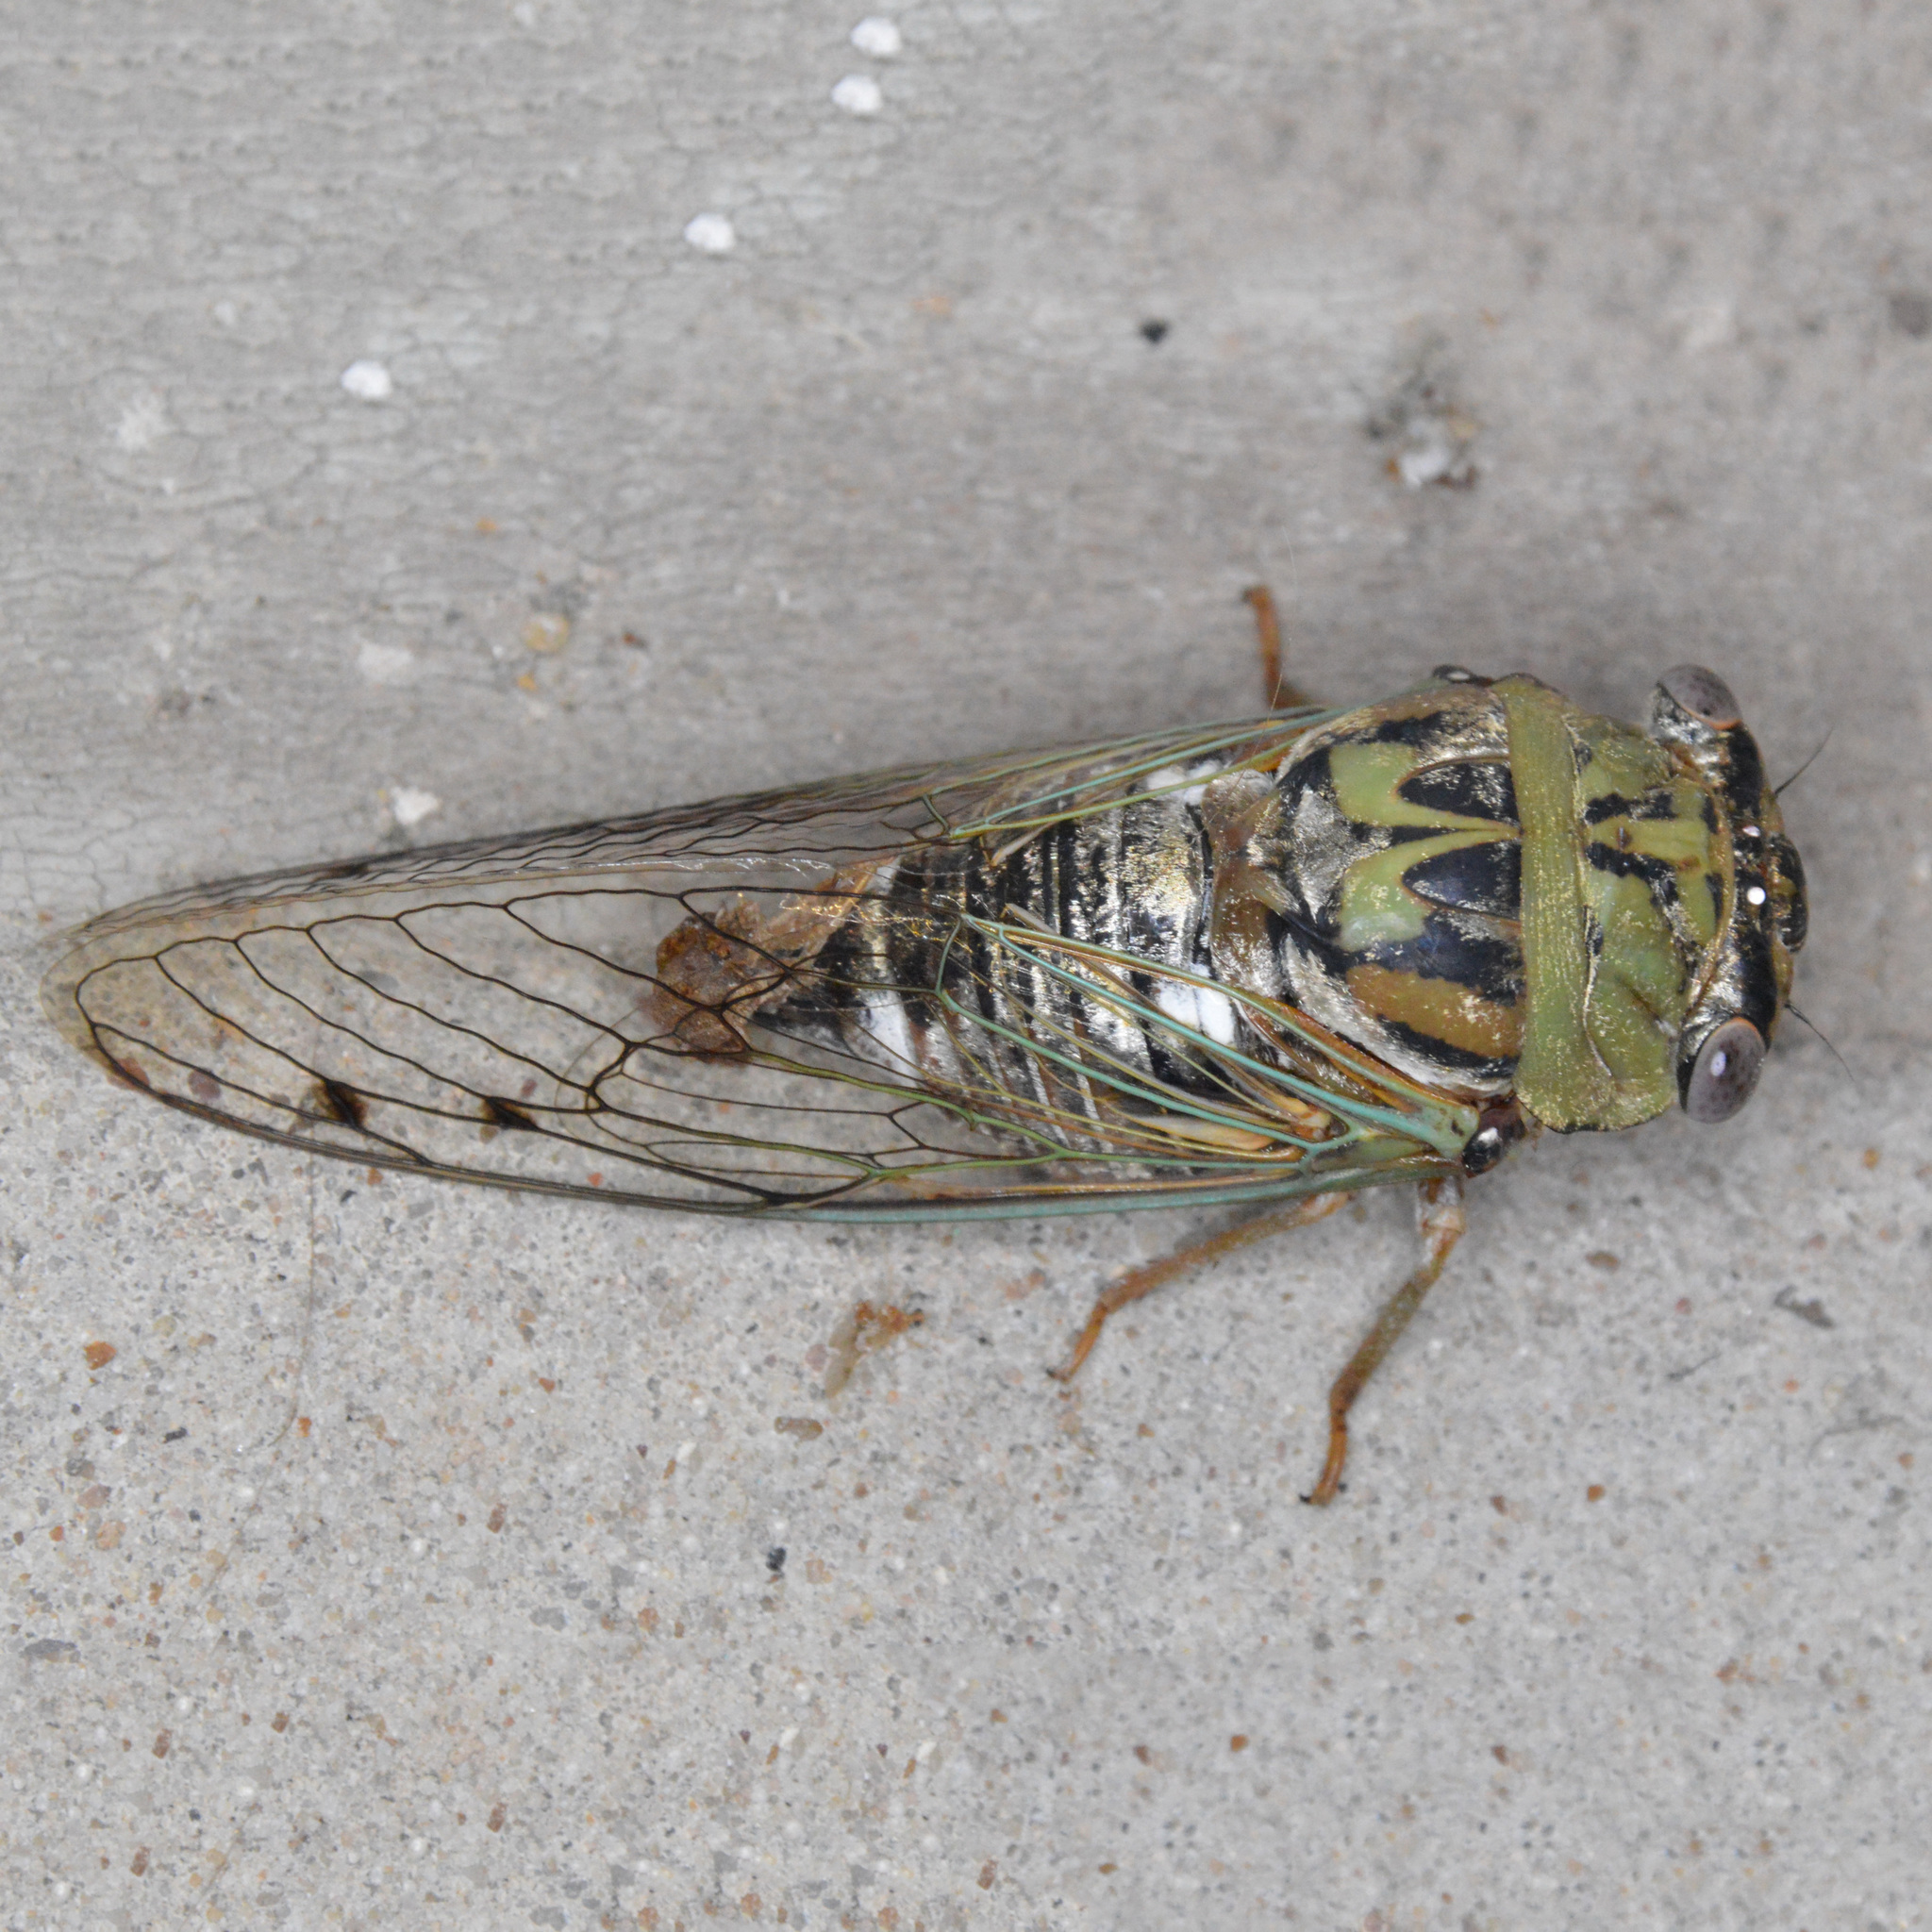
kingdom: Animalia
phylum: Arthropoda
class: Insecta
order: Hemiptera
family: Cicadidae
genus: Megatibicen
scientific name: Megatibicen resh
